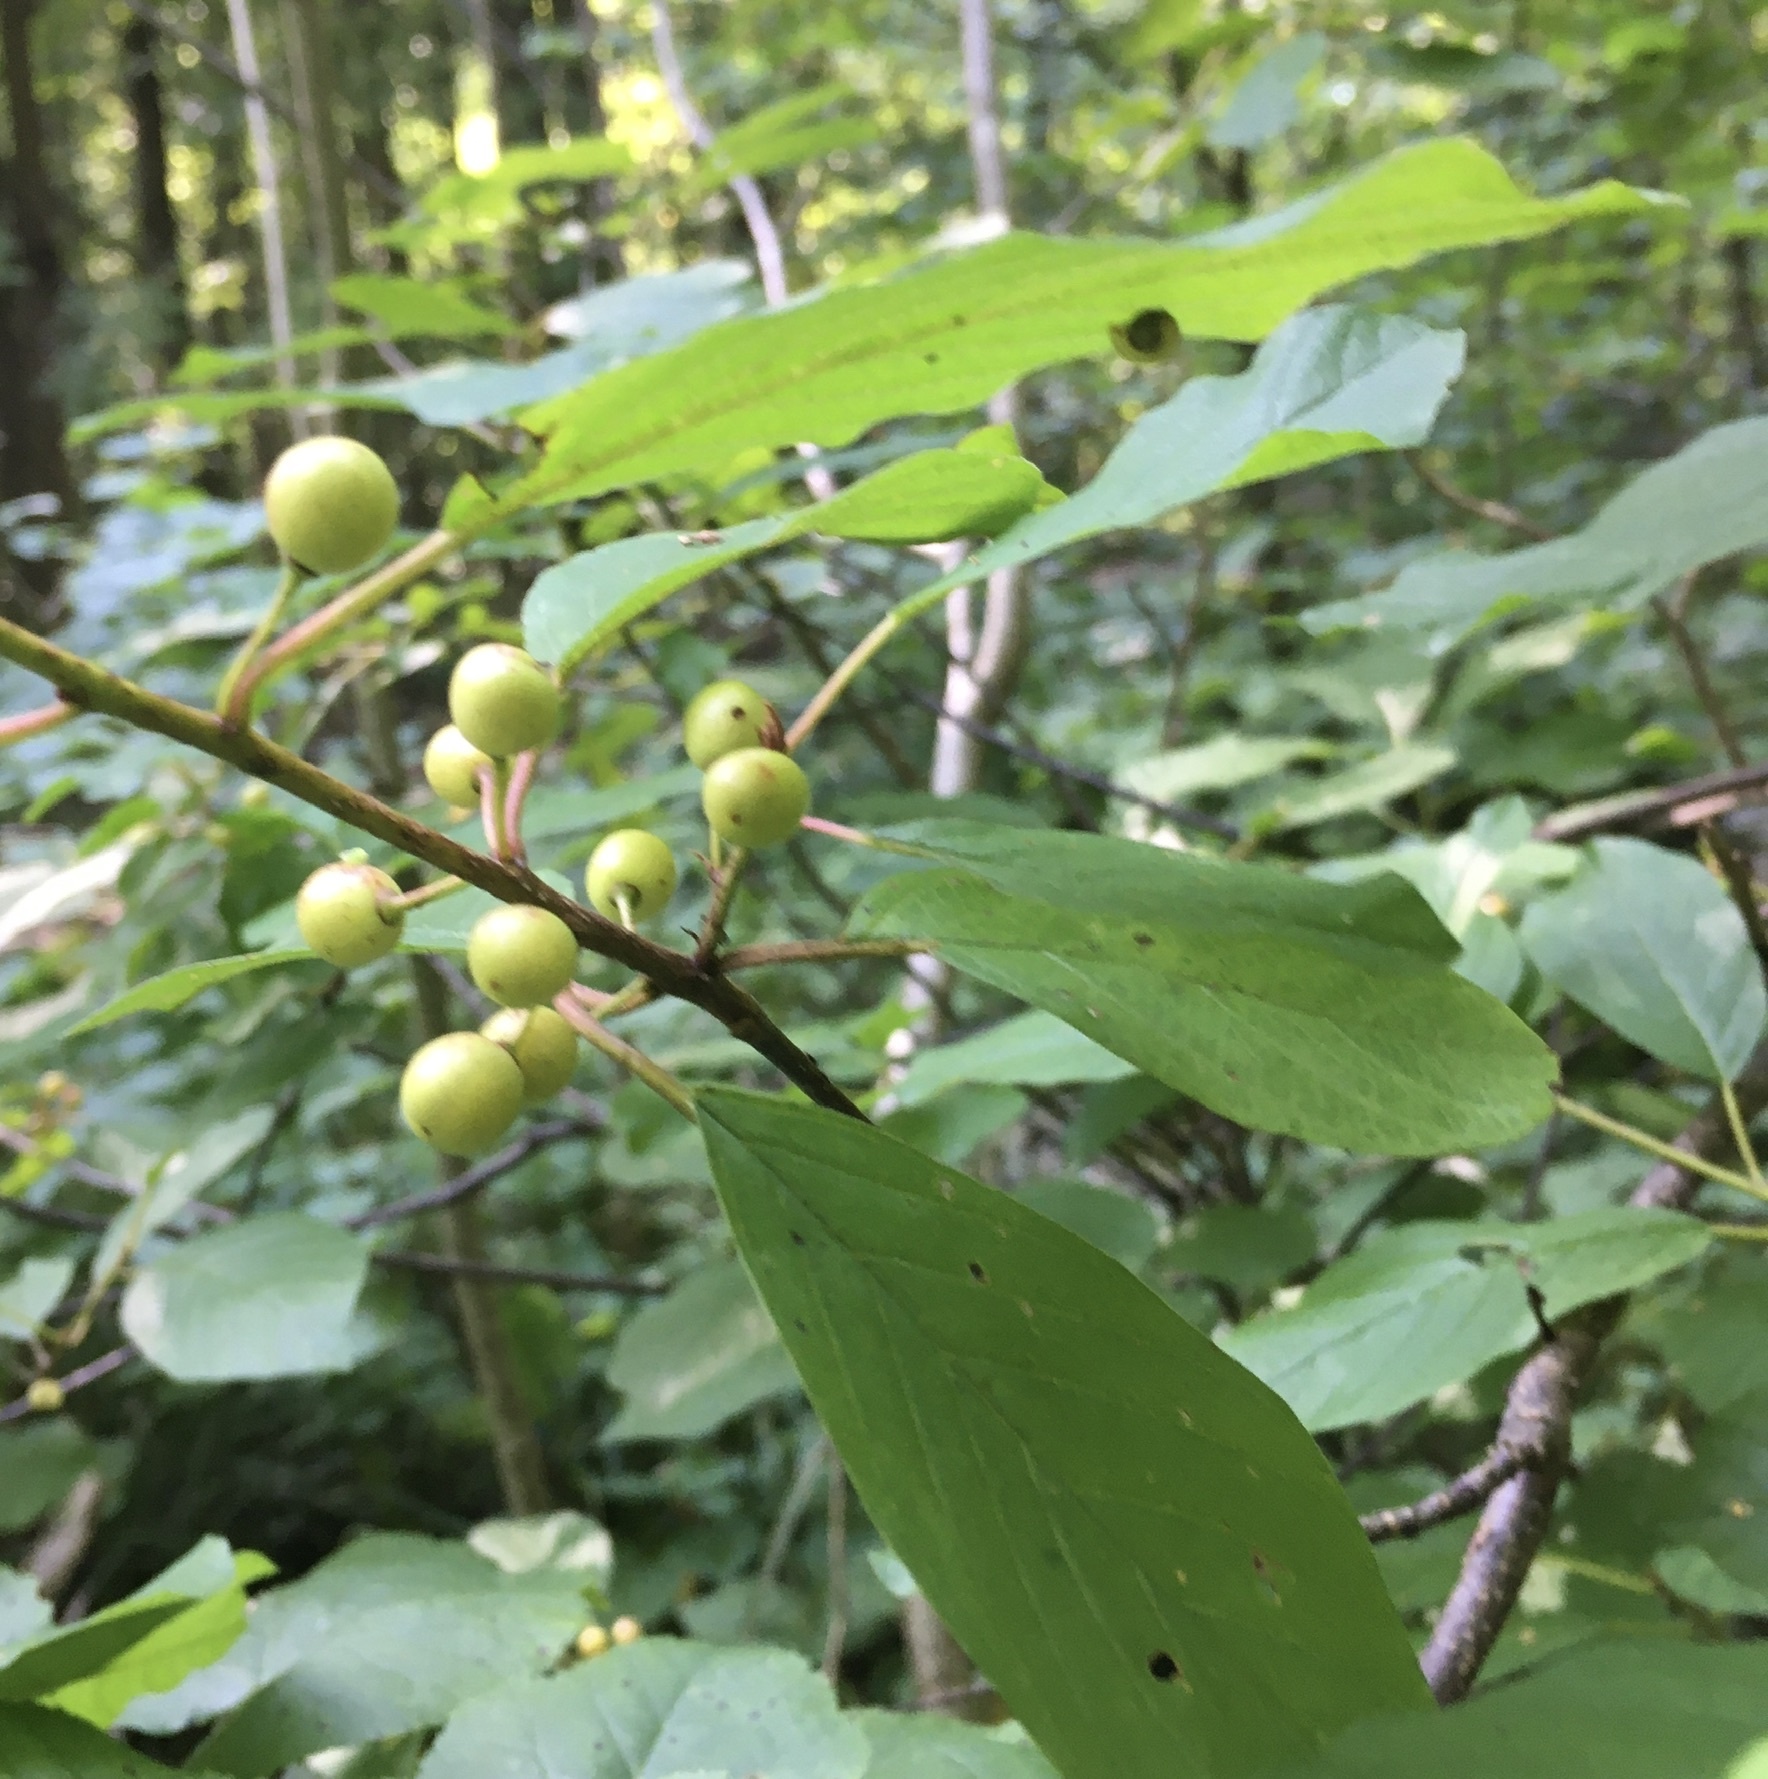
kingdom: Plantae
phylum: Tracheophyta
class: Magnoliopsida
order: Rosales
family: Rhamnaceae
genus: Frangula
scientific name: Frangula alnus
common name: Alder buckthorn
